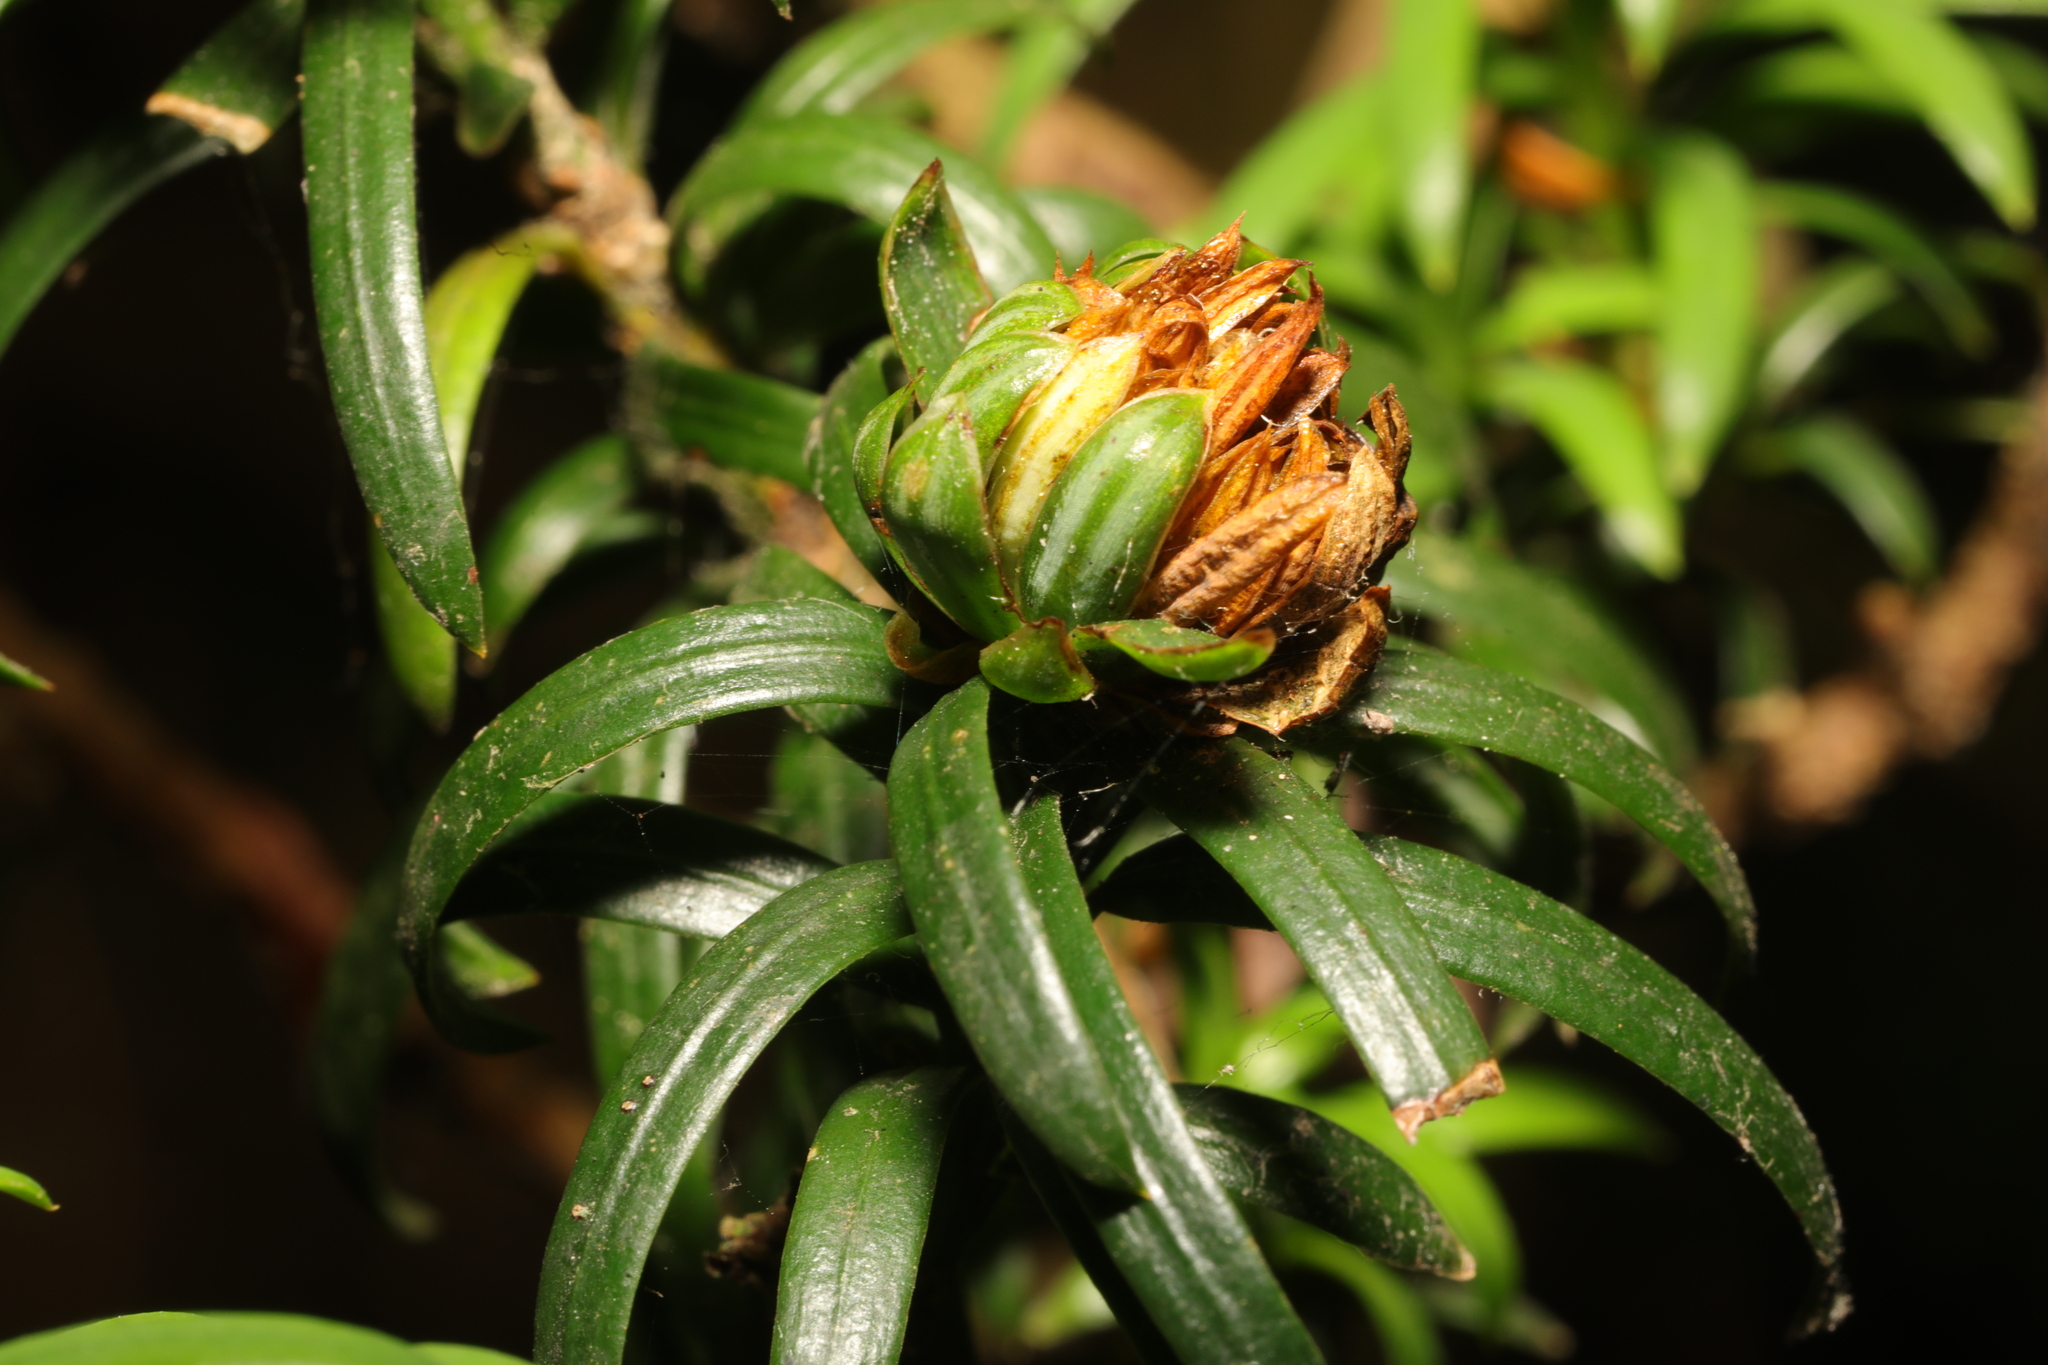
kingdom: Animalia
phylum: Arthropoda
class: Insecta
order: Diptera
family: Cecidomyiidae
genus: Taxomyia
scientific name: Taxomyia taxi
